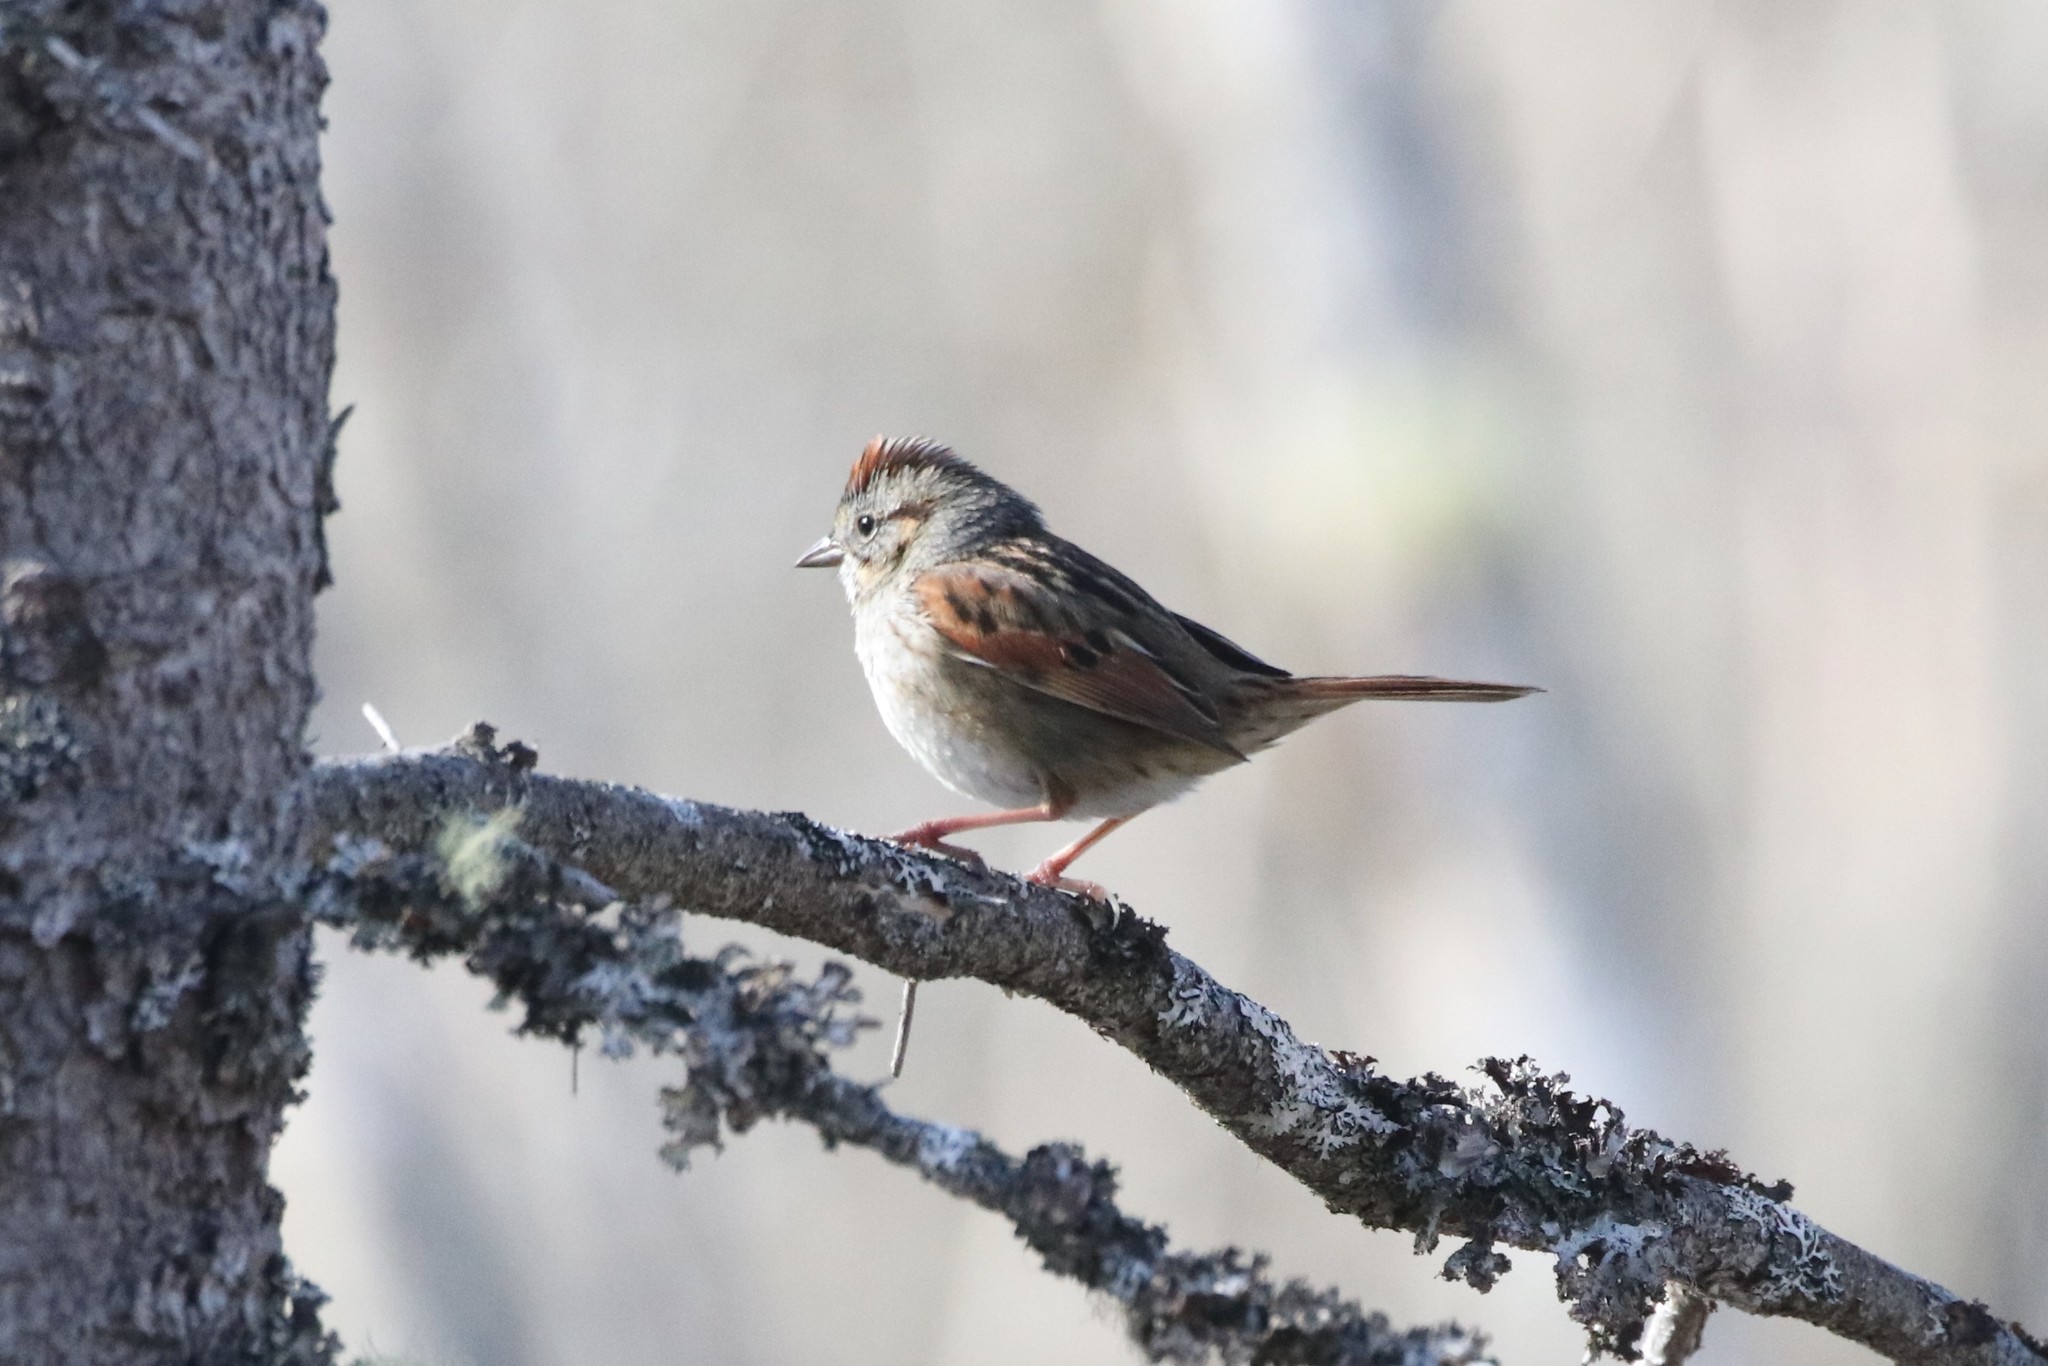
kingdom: Animalia
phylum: Chordata
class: Aves
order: Passeriformes
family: Passerellidae
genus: Melospiza
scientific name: Melospiza georgiana
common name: Swamp sparrow
